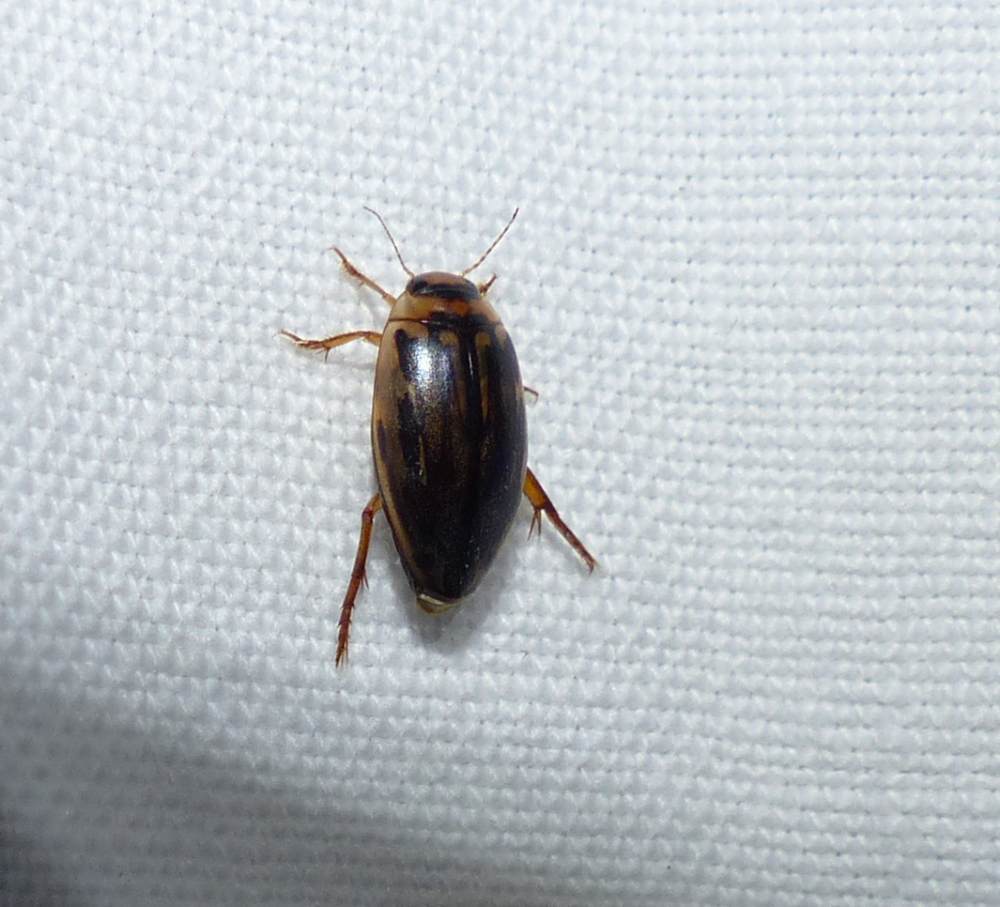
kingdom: Animalia
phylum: Arthropoda
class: Insecta
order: Coleoptera
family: Dytiscidae
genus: Coptotomus
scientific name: Coptotomus longulus
